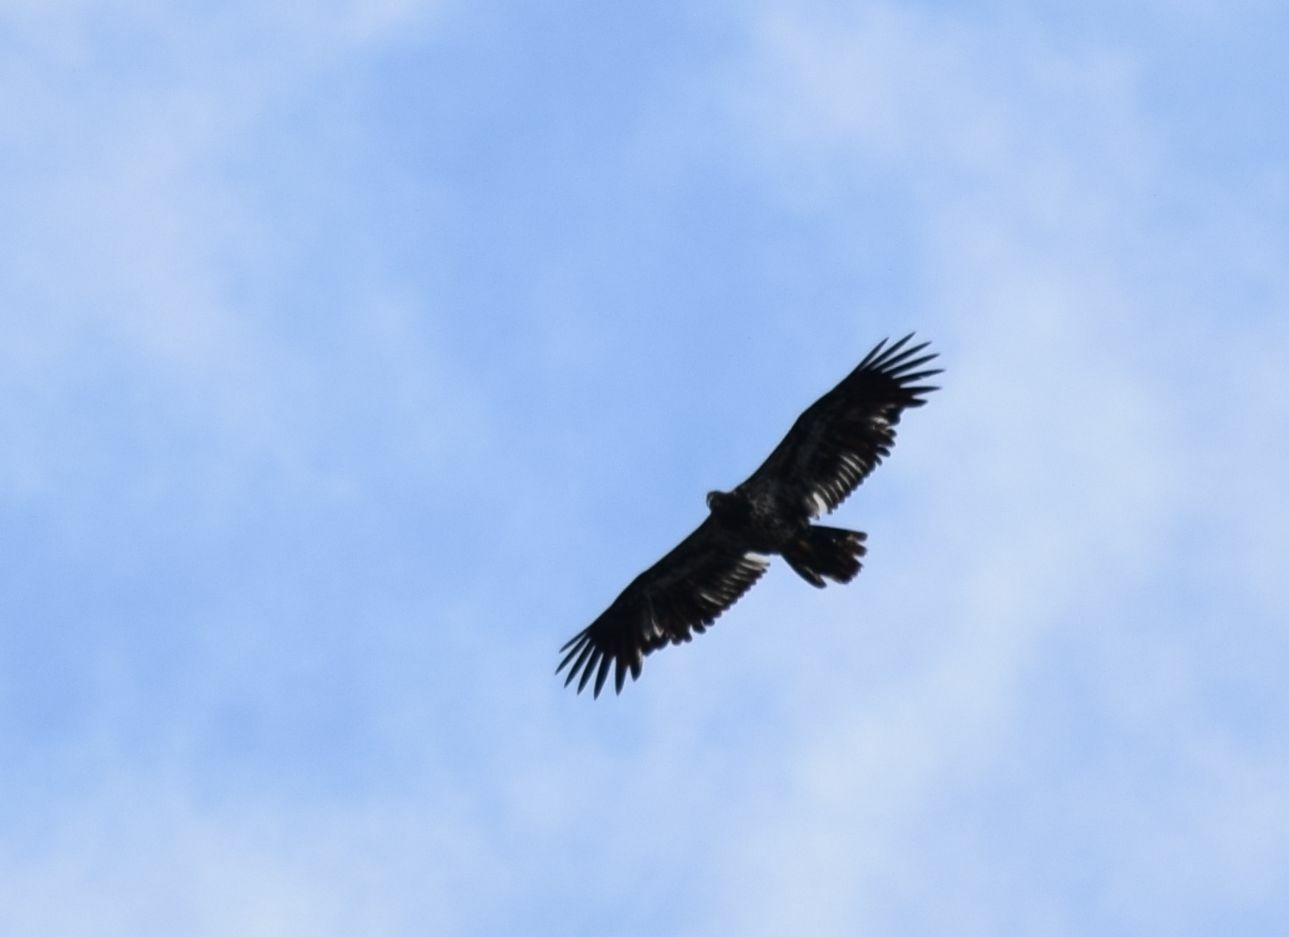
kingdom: Animalia
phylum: Chordata
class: Aves
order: Accipitriformes
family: Accipitridae
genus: Haliaeetus
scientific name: Haliaeetus leucocephalus
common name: Bald eagle
